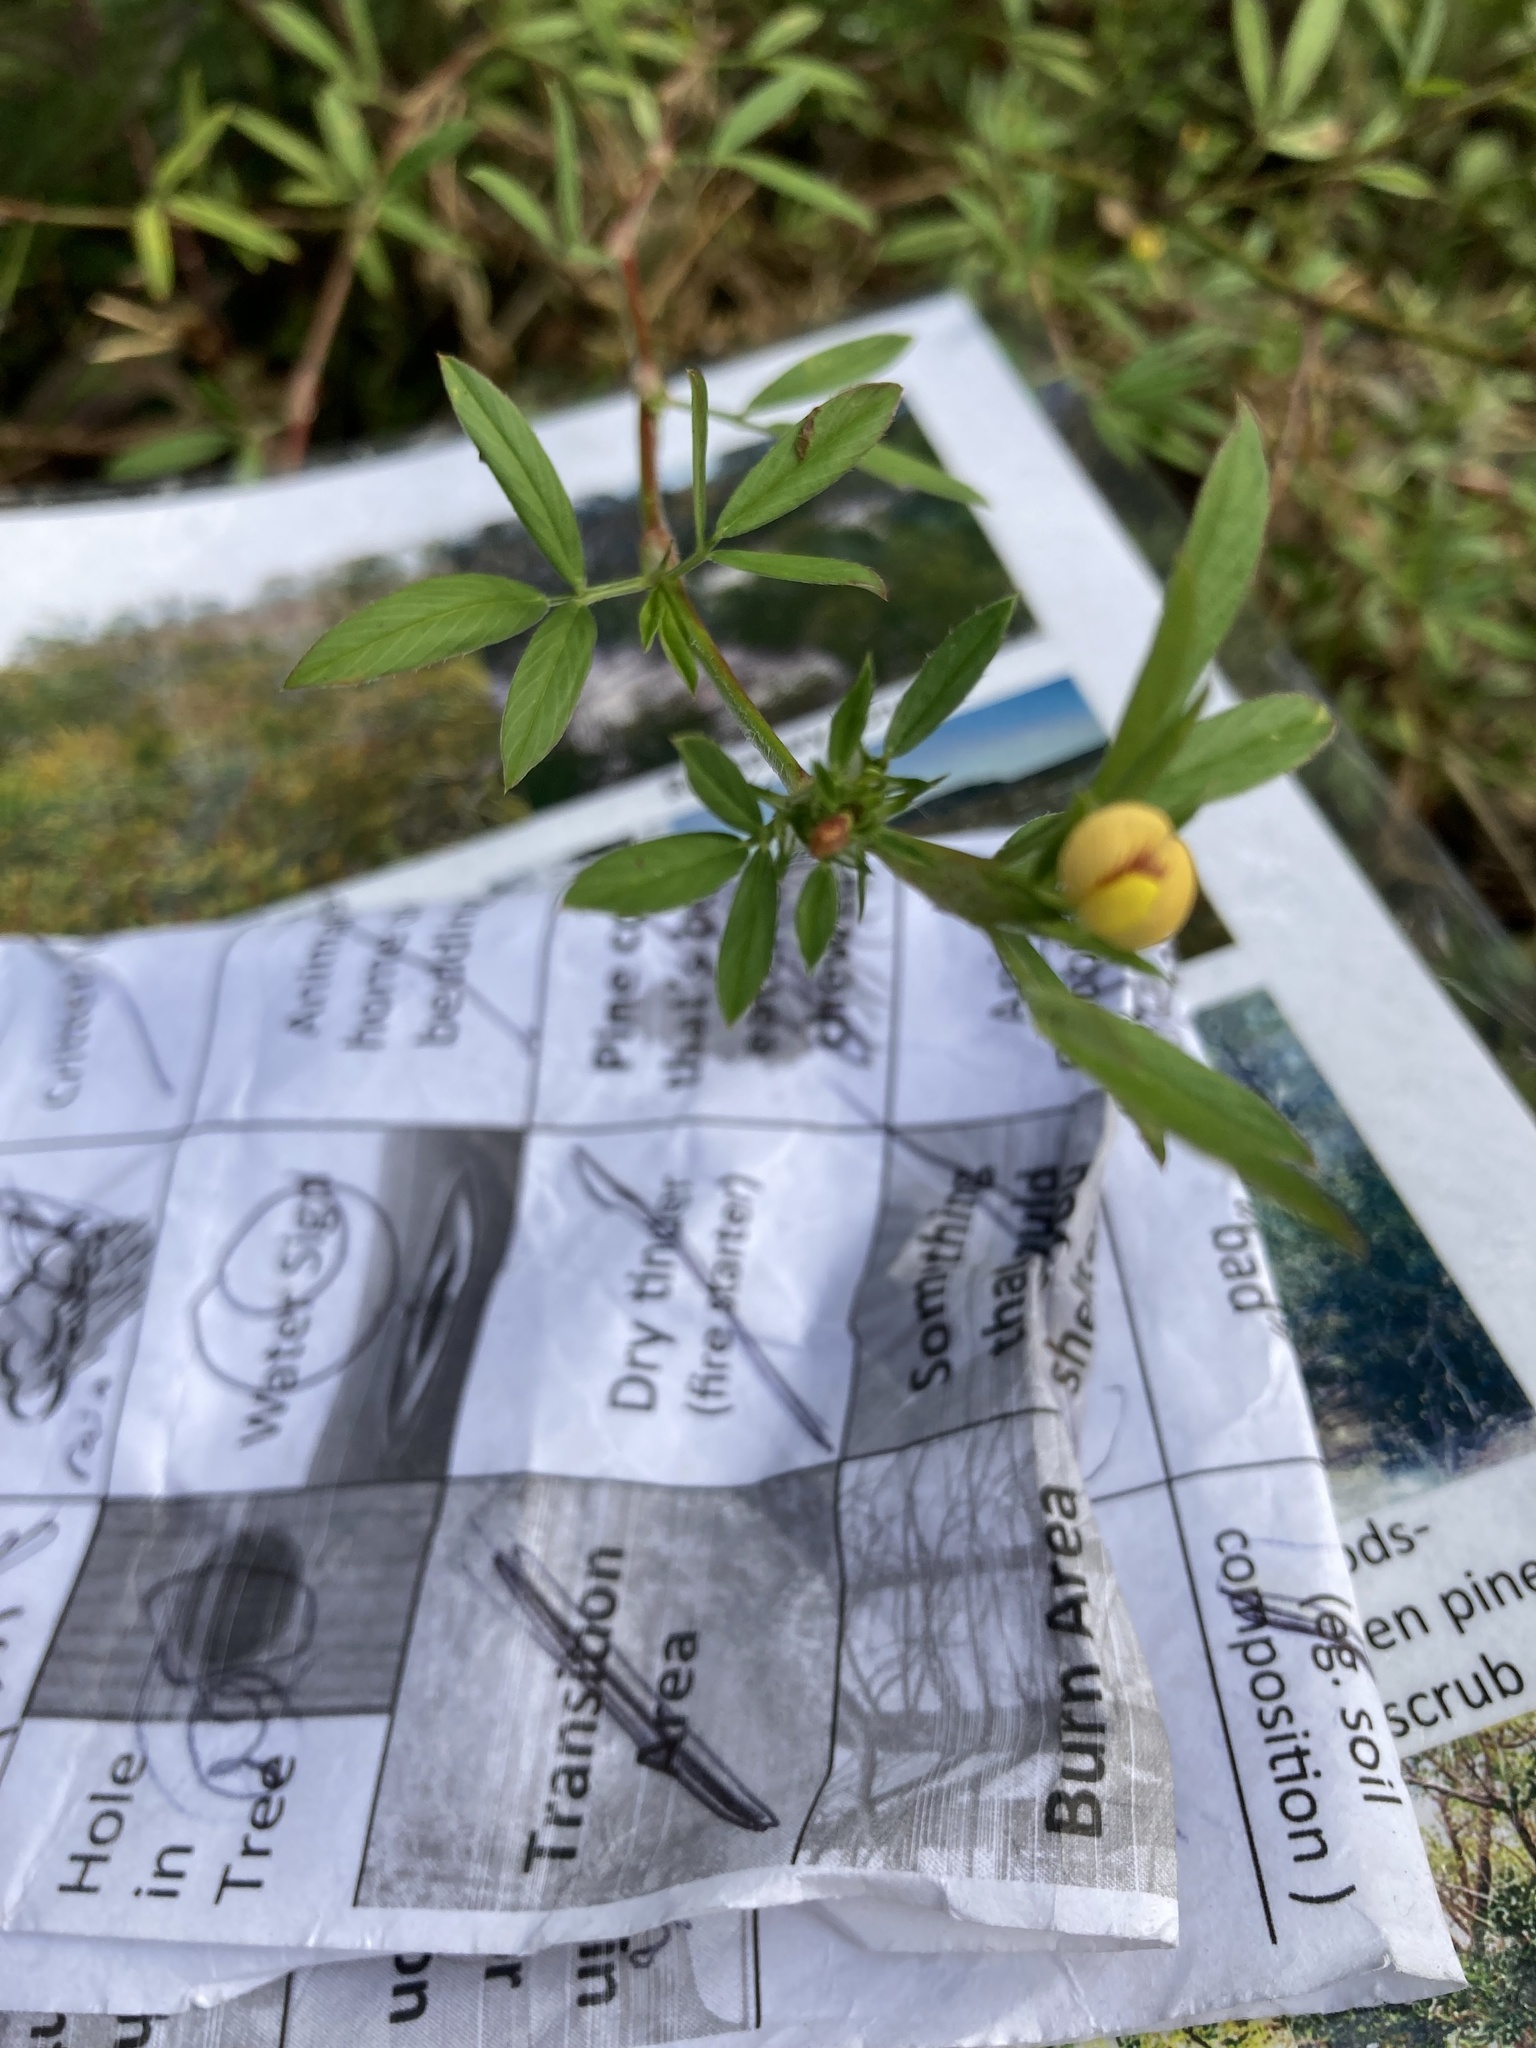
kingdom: Plantae
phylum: Tracheophyta
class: Magnoliopsida
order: Fabales
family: Fabaceae
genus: Stylosanthes
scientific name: Stylosanthes hamata
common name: Cheesytoes
